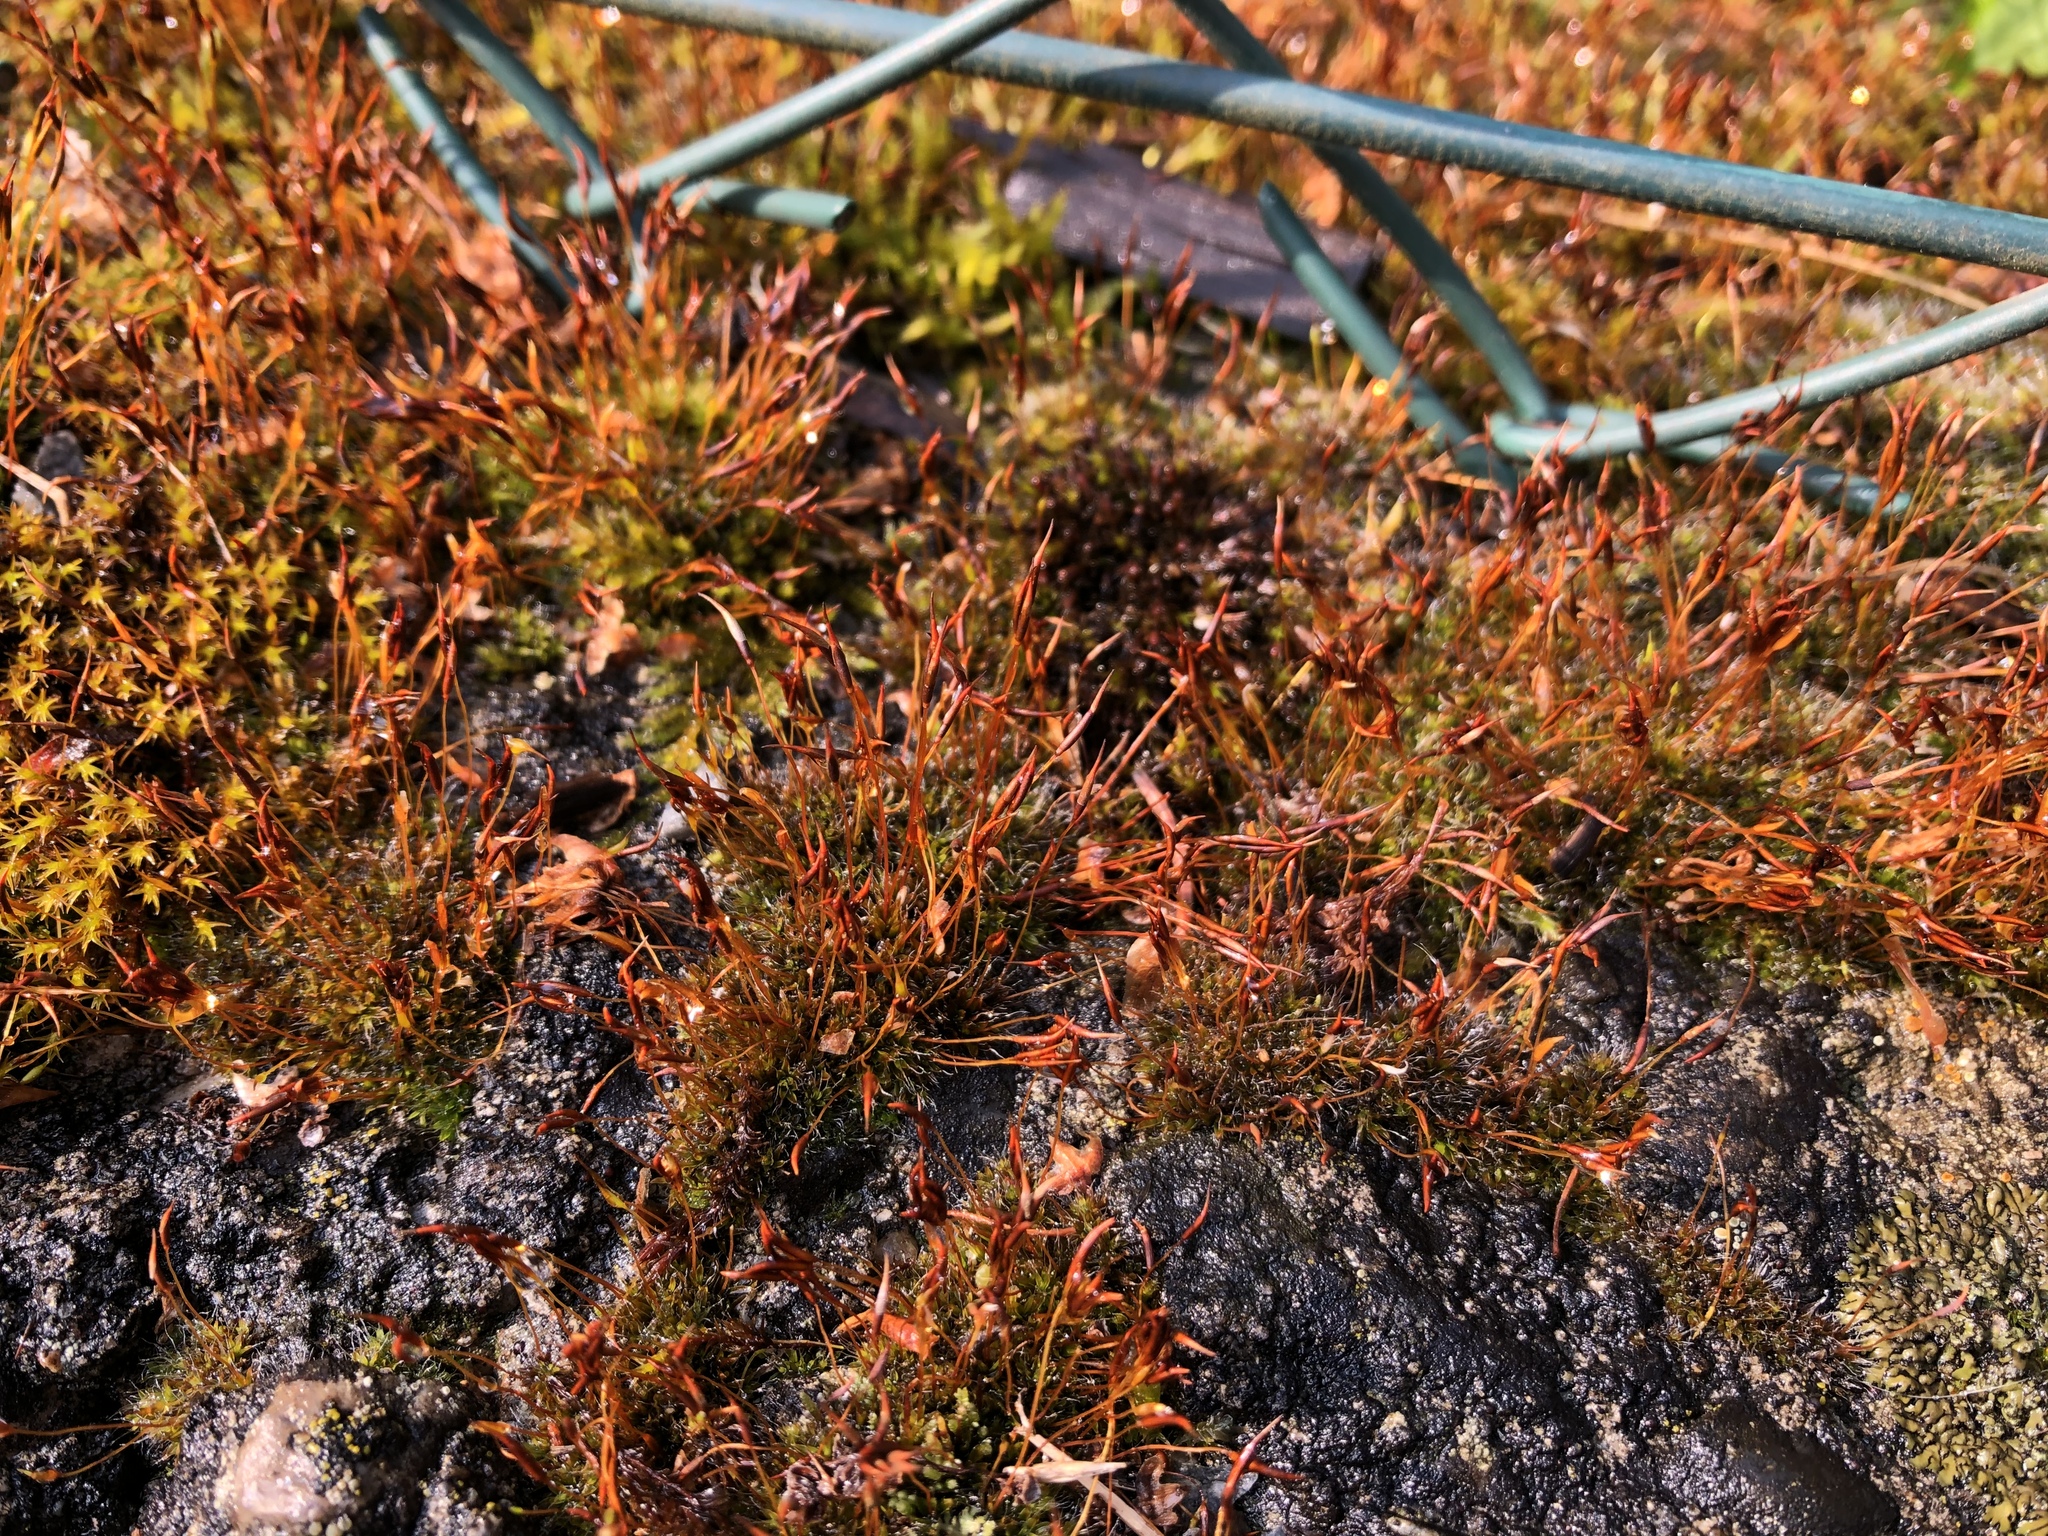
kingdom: Plantae
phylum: Bryophyta
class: Bryopsida
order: Pottiales
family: Pottiaceae
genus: Tortula
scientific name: Tortula muralis
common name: Wall screw-moss
